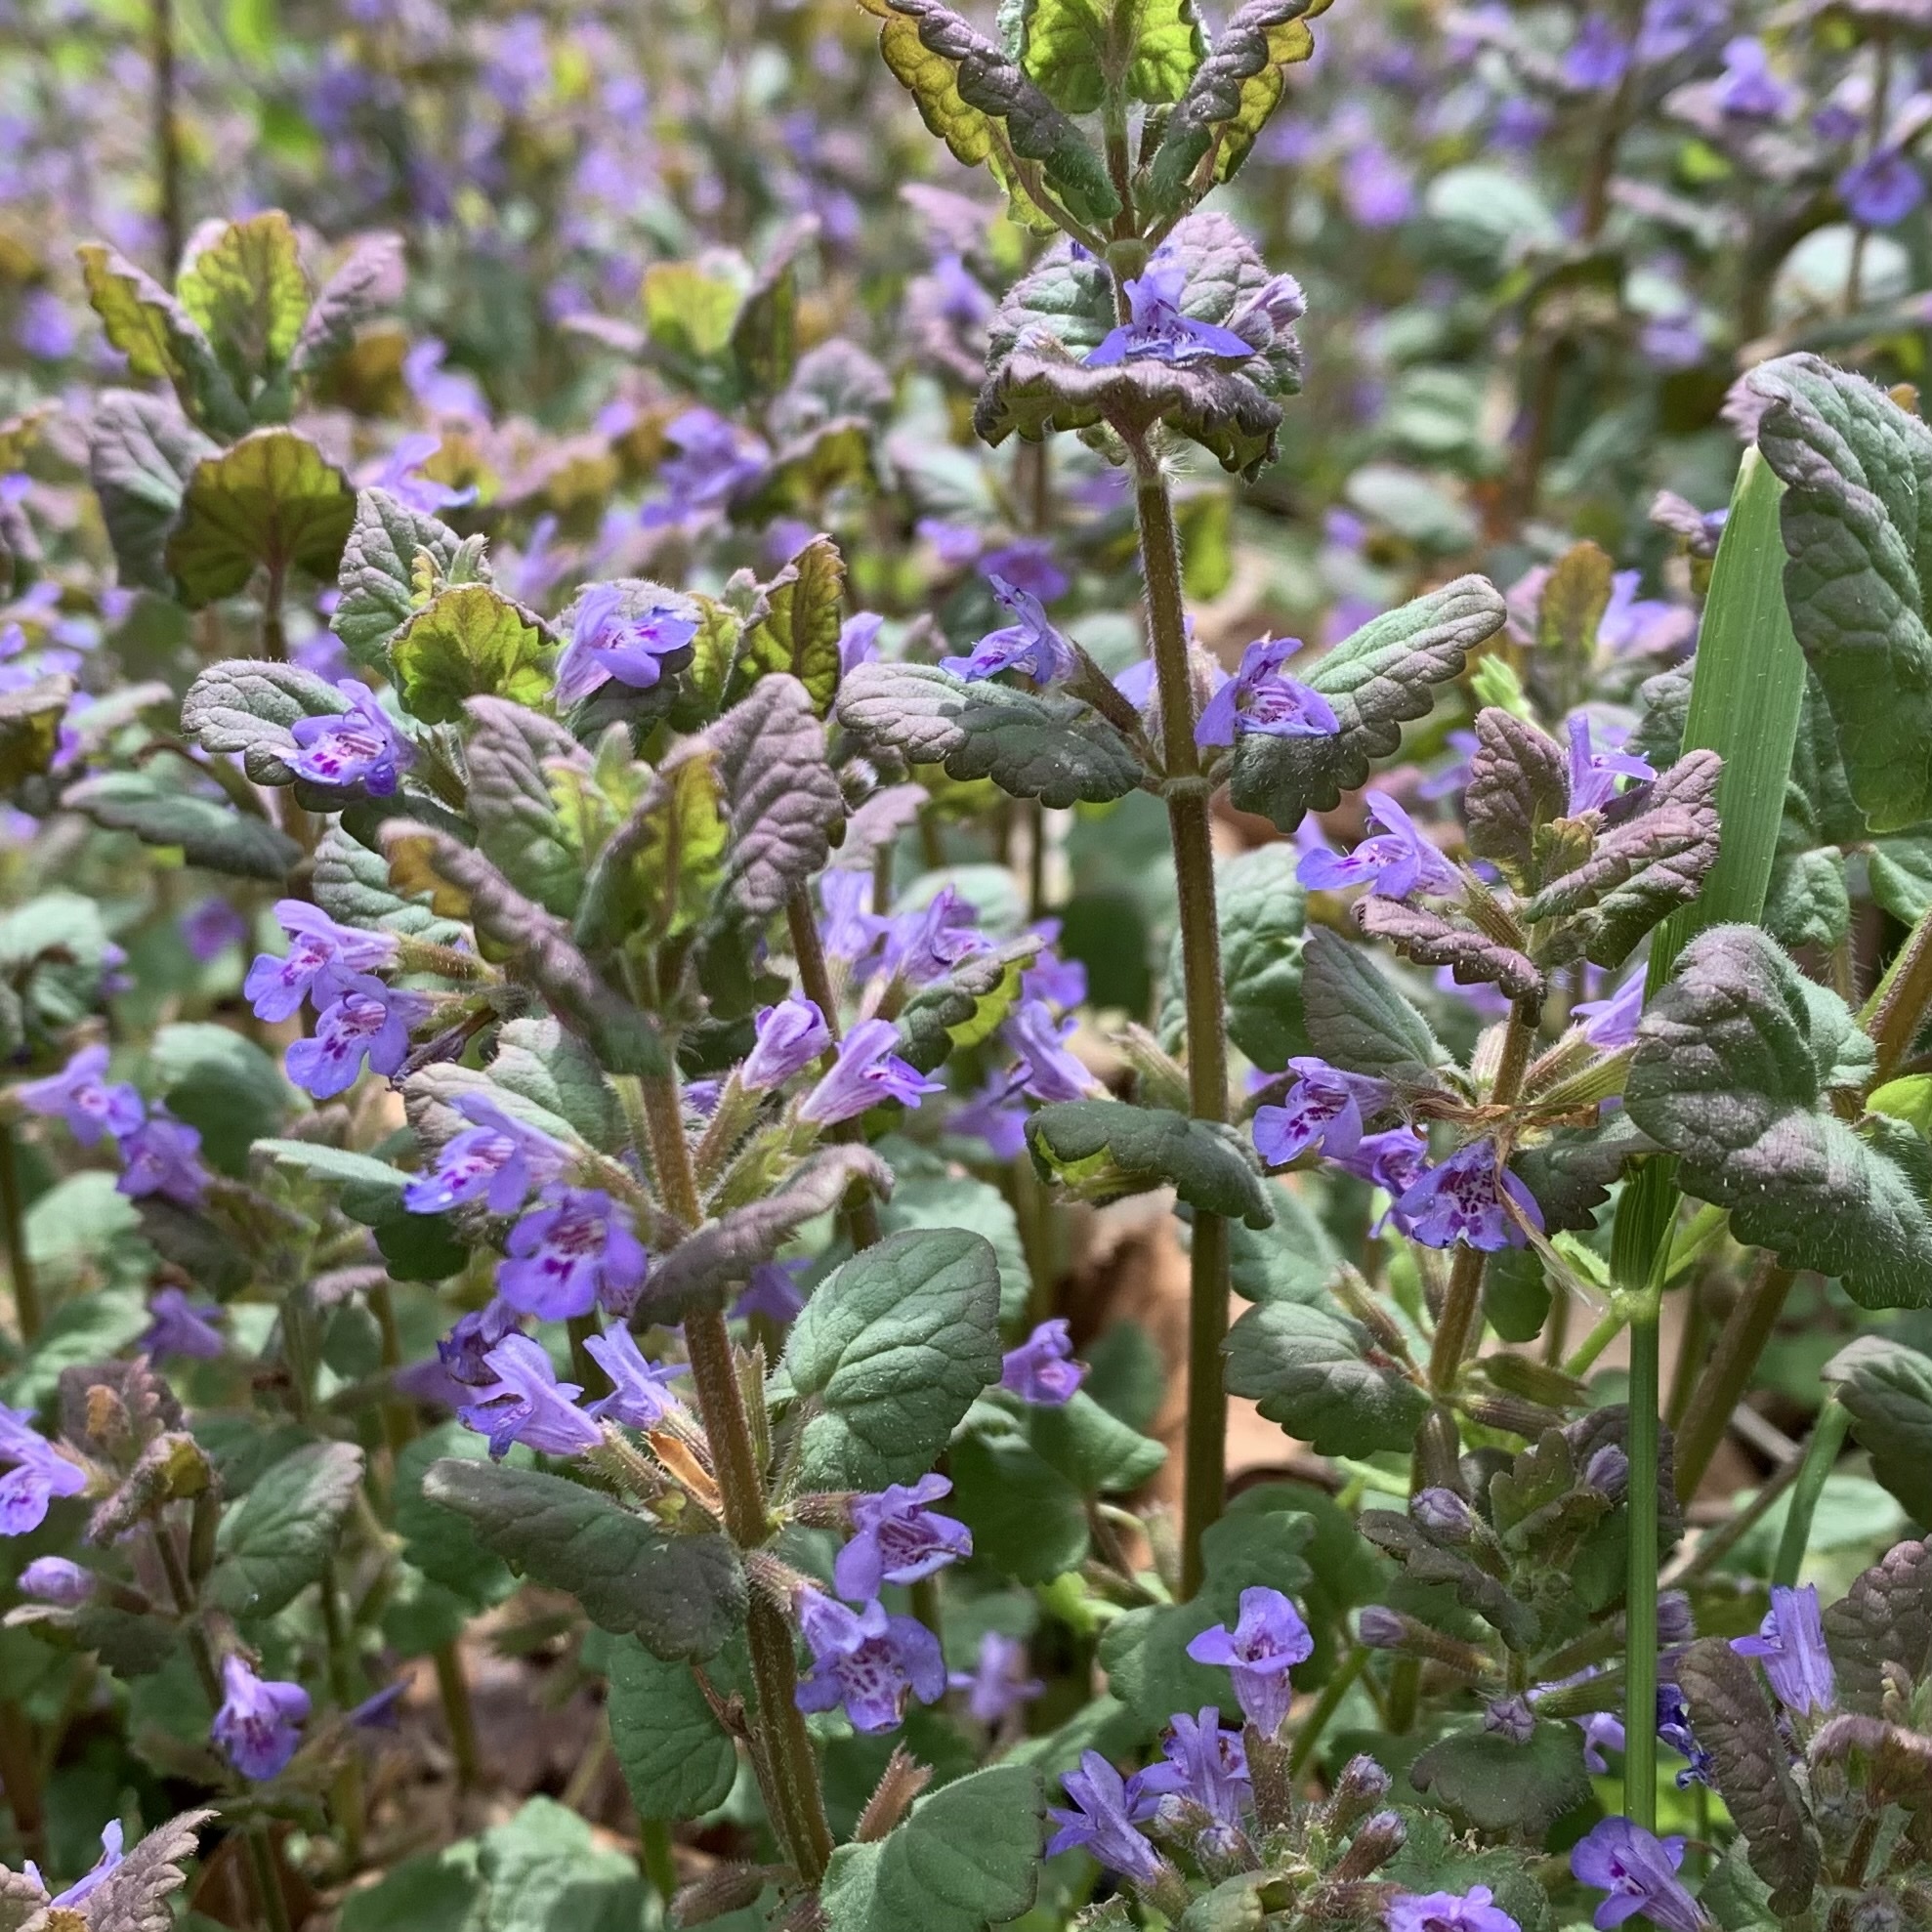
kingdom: Plantae
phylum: Tracheophyta
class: Magnoliopsida
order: Lamiales
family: Lamiaceae
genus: Glechoma
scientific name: Glechoma hederacea
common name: Ground ivy
